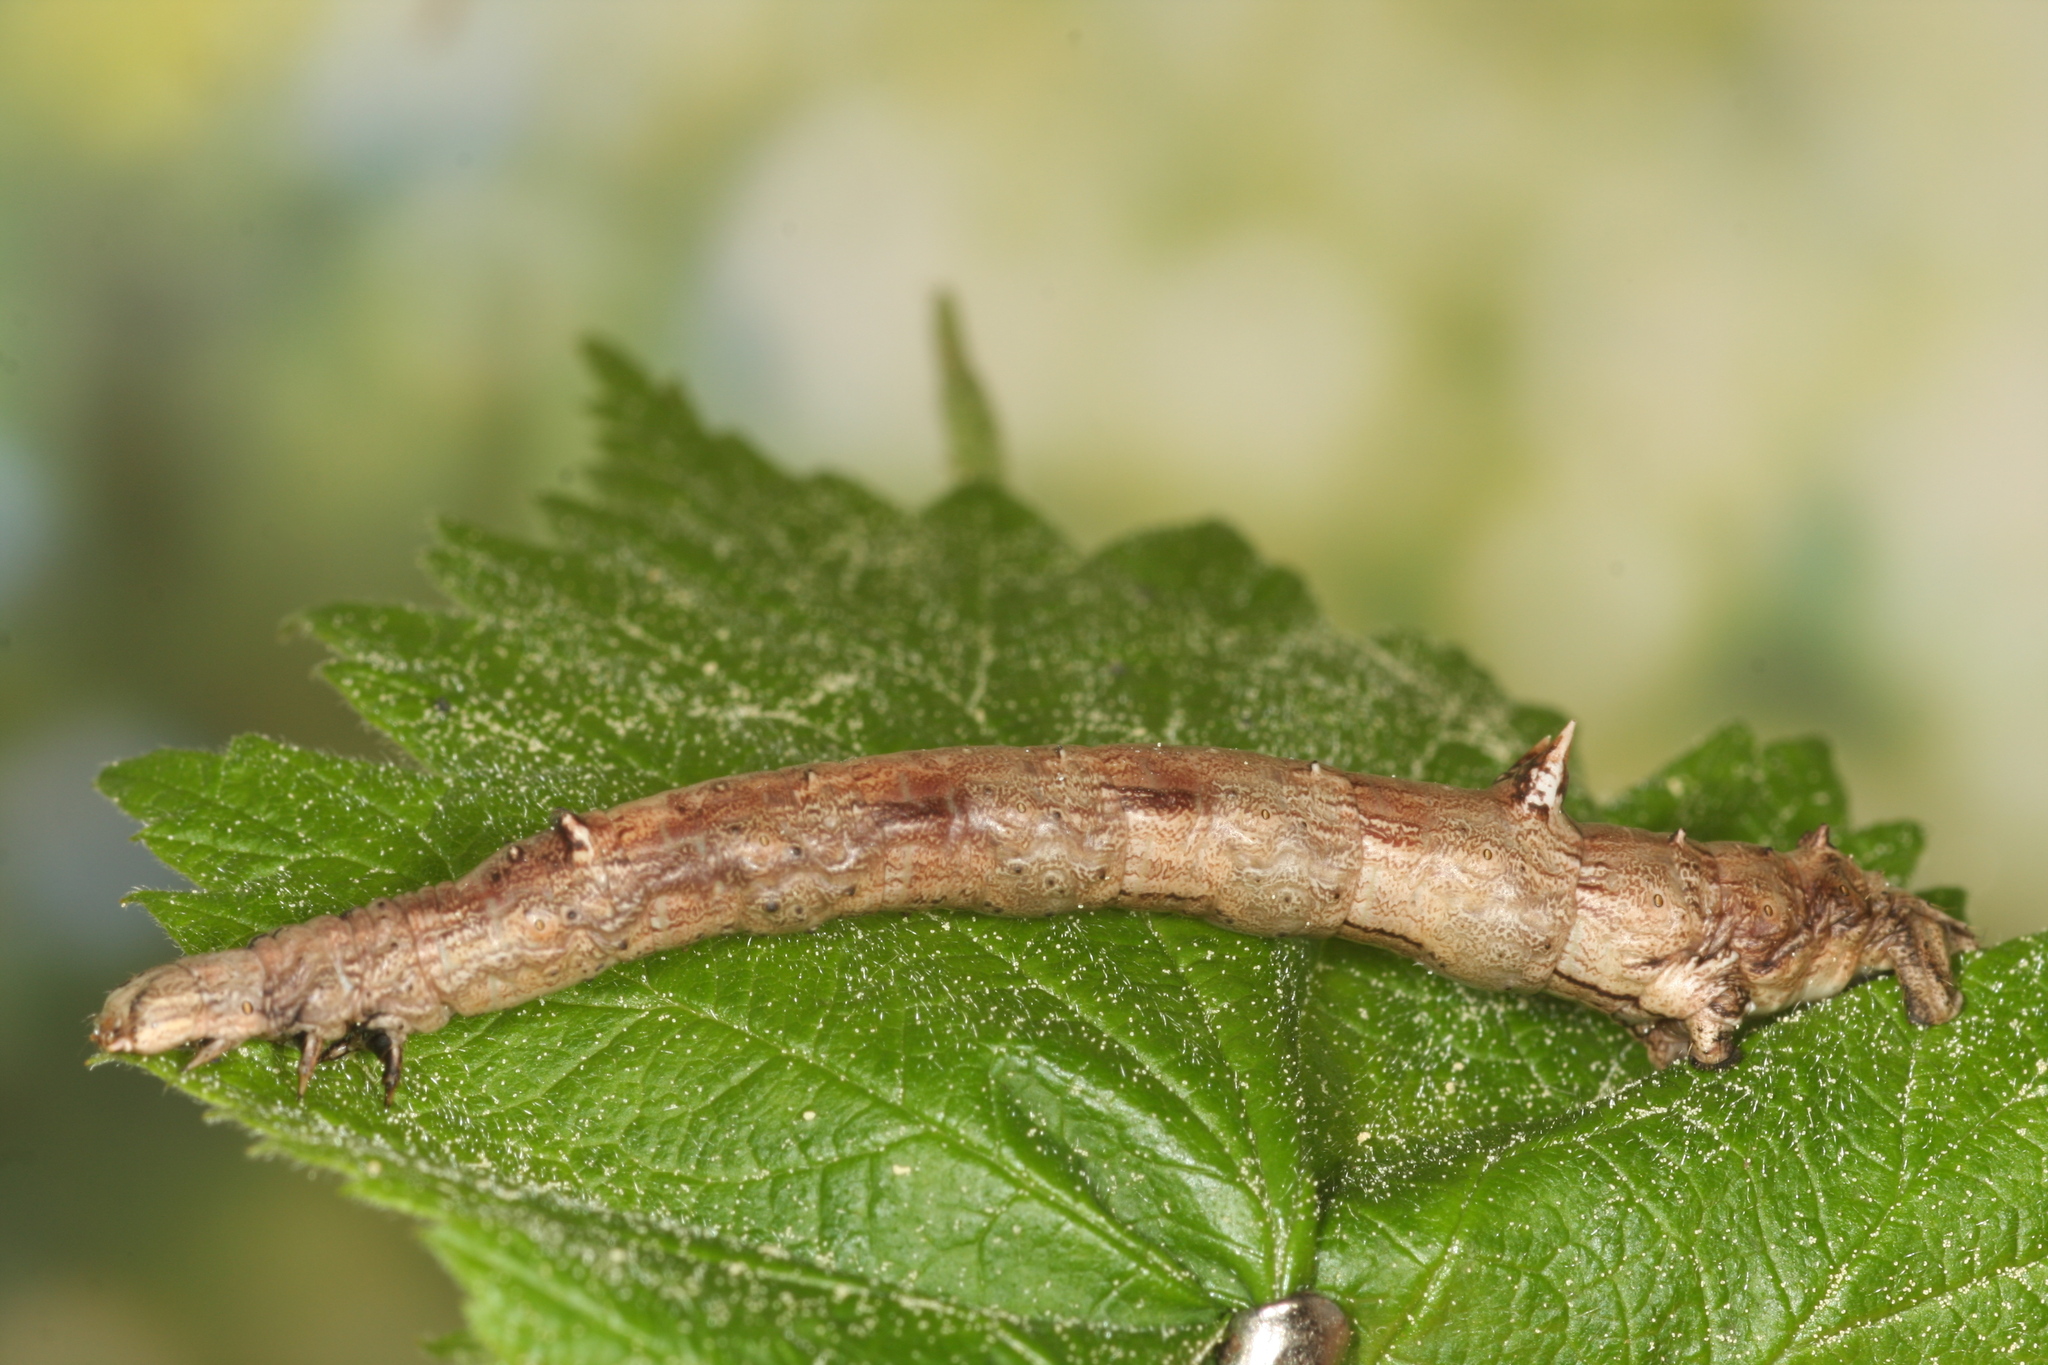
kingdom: Animalia
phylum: Arthropoda
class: Insecta
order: Lepidoptera
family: Geometridae
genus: Angerona
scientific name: Angerona prunaria
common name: Orange moth
